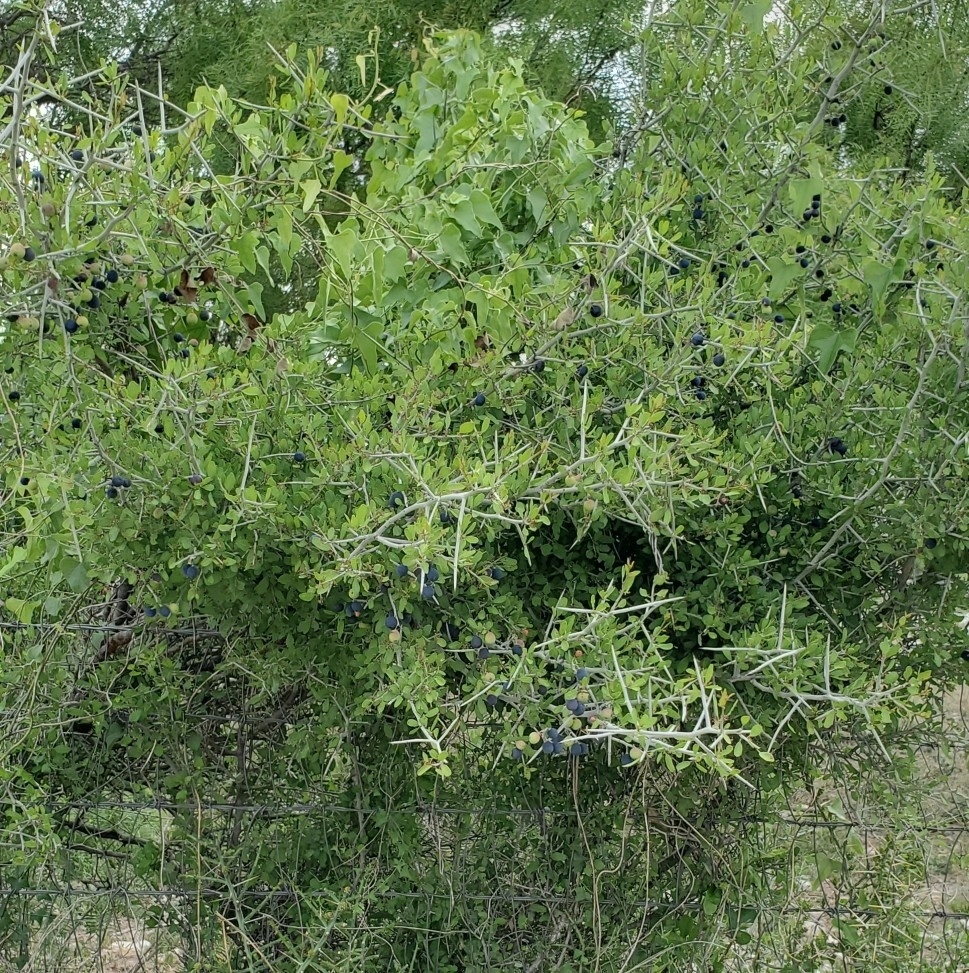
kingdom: Plantae
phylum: Tracheophyta
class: Magnoliopsida
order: Rosales
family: Rhamnaceae
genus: Sarcomphalus
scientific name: Sarcomphalus obtusifolius
